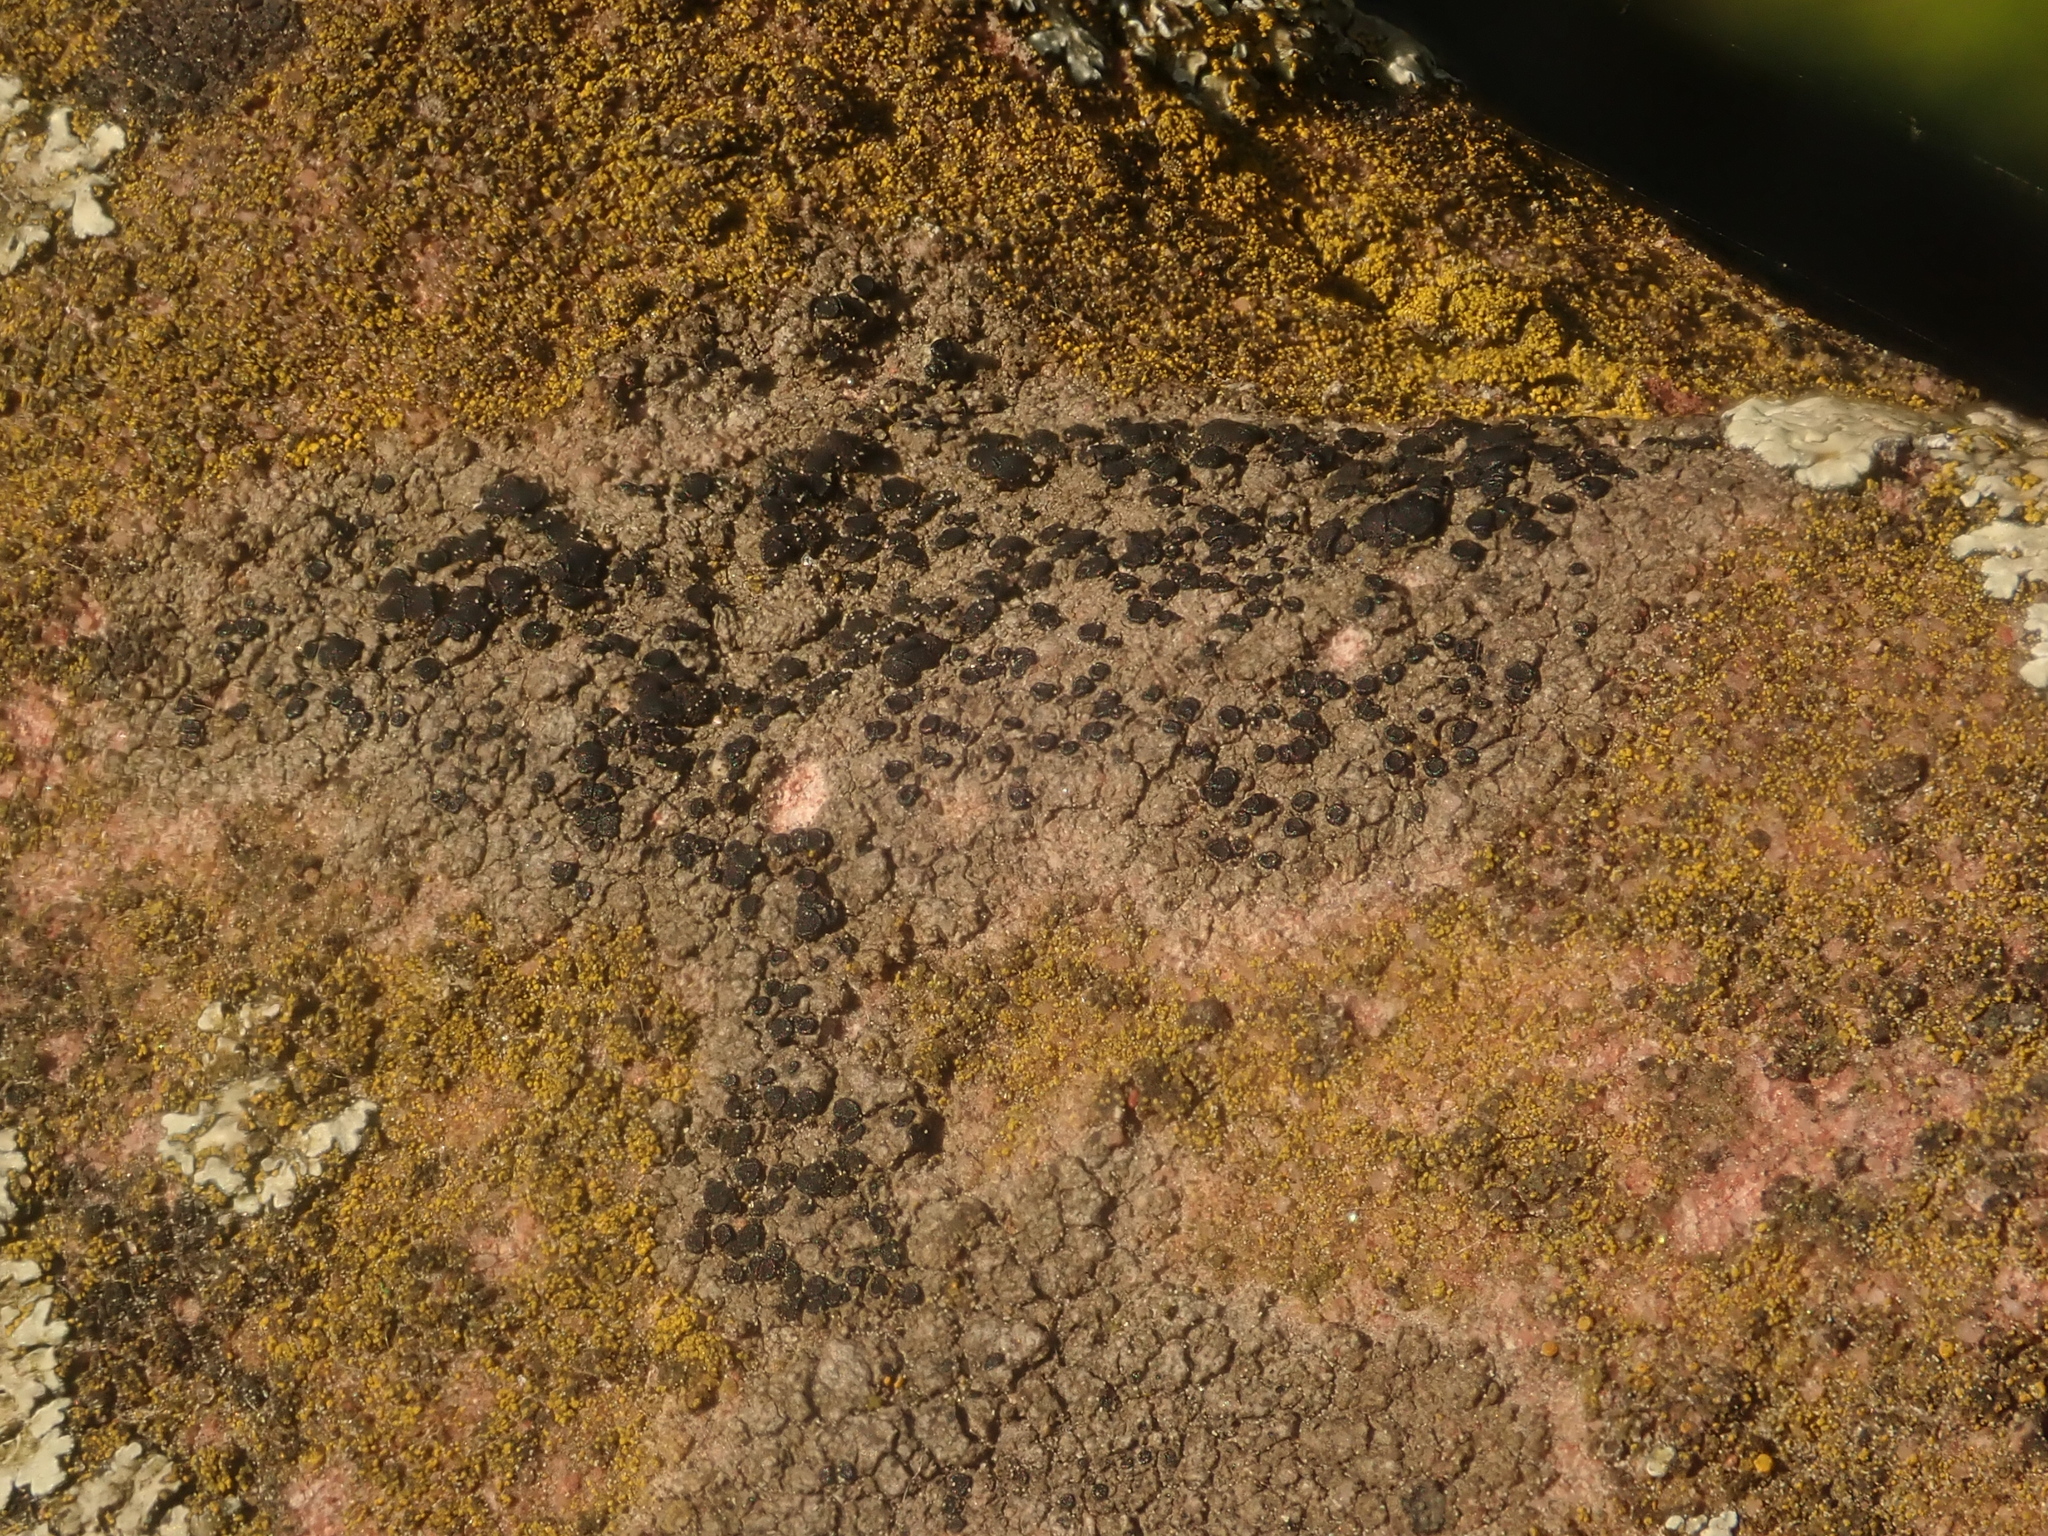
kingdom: Fungi
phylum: Ascomycota
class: Lecanoromycetes
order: Lecanorales
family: Lecanoraceae
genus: Lecidella
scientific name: Lecidella stigmatea
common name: Limestone disc lichen
